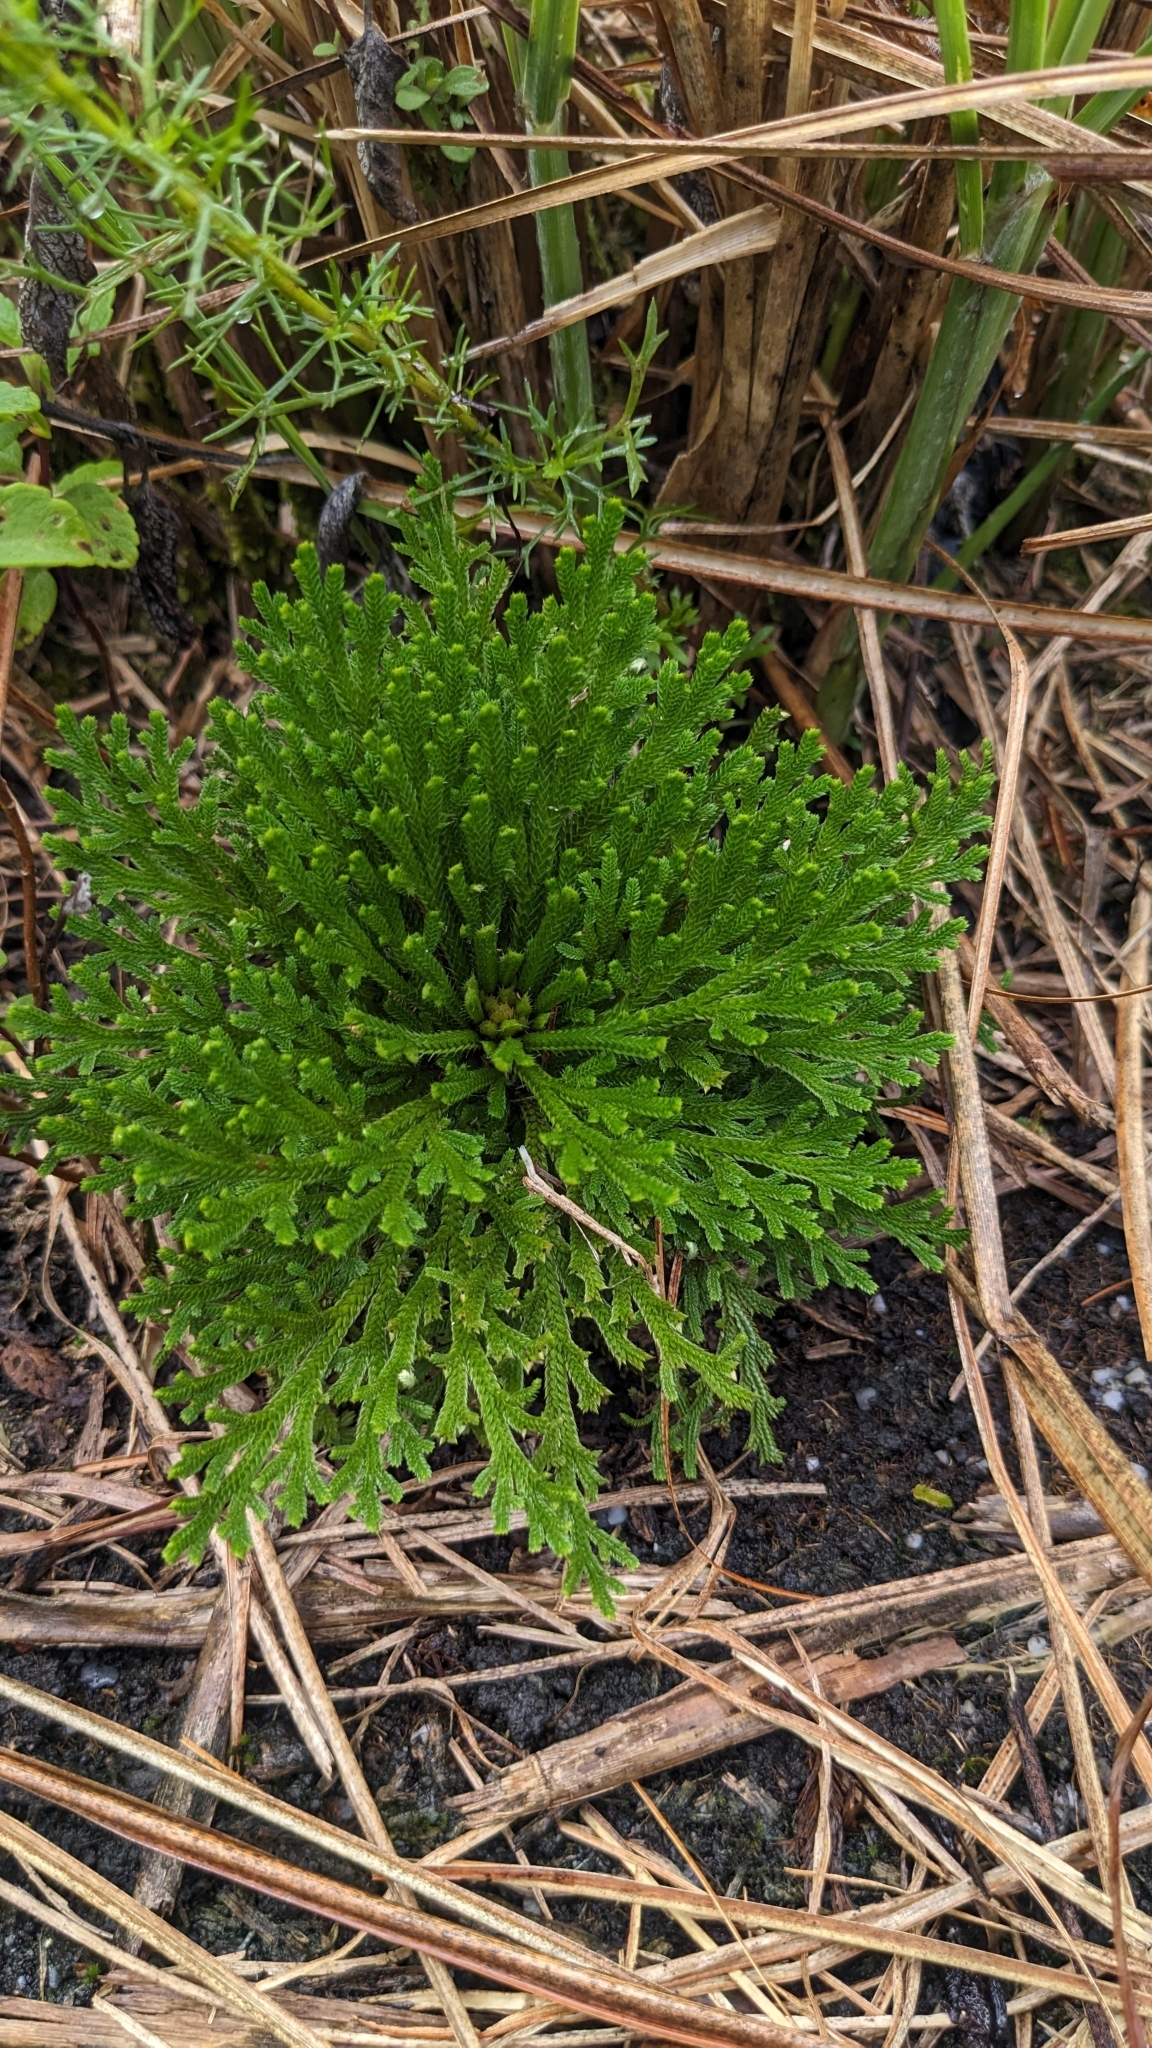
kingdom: Plantae
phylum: Tracheophyta
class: Lycopodiopsida
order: Selaginellales
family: Selaginellaceae
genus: Selaginella
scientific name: Selaginella tamariscina
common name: Little-club-moss
